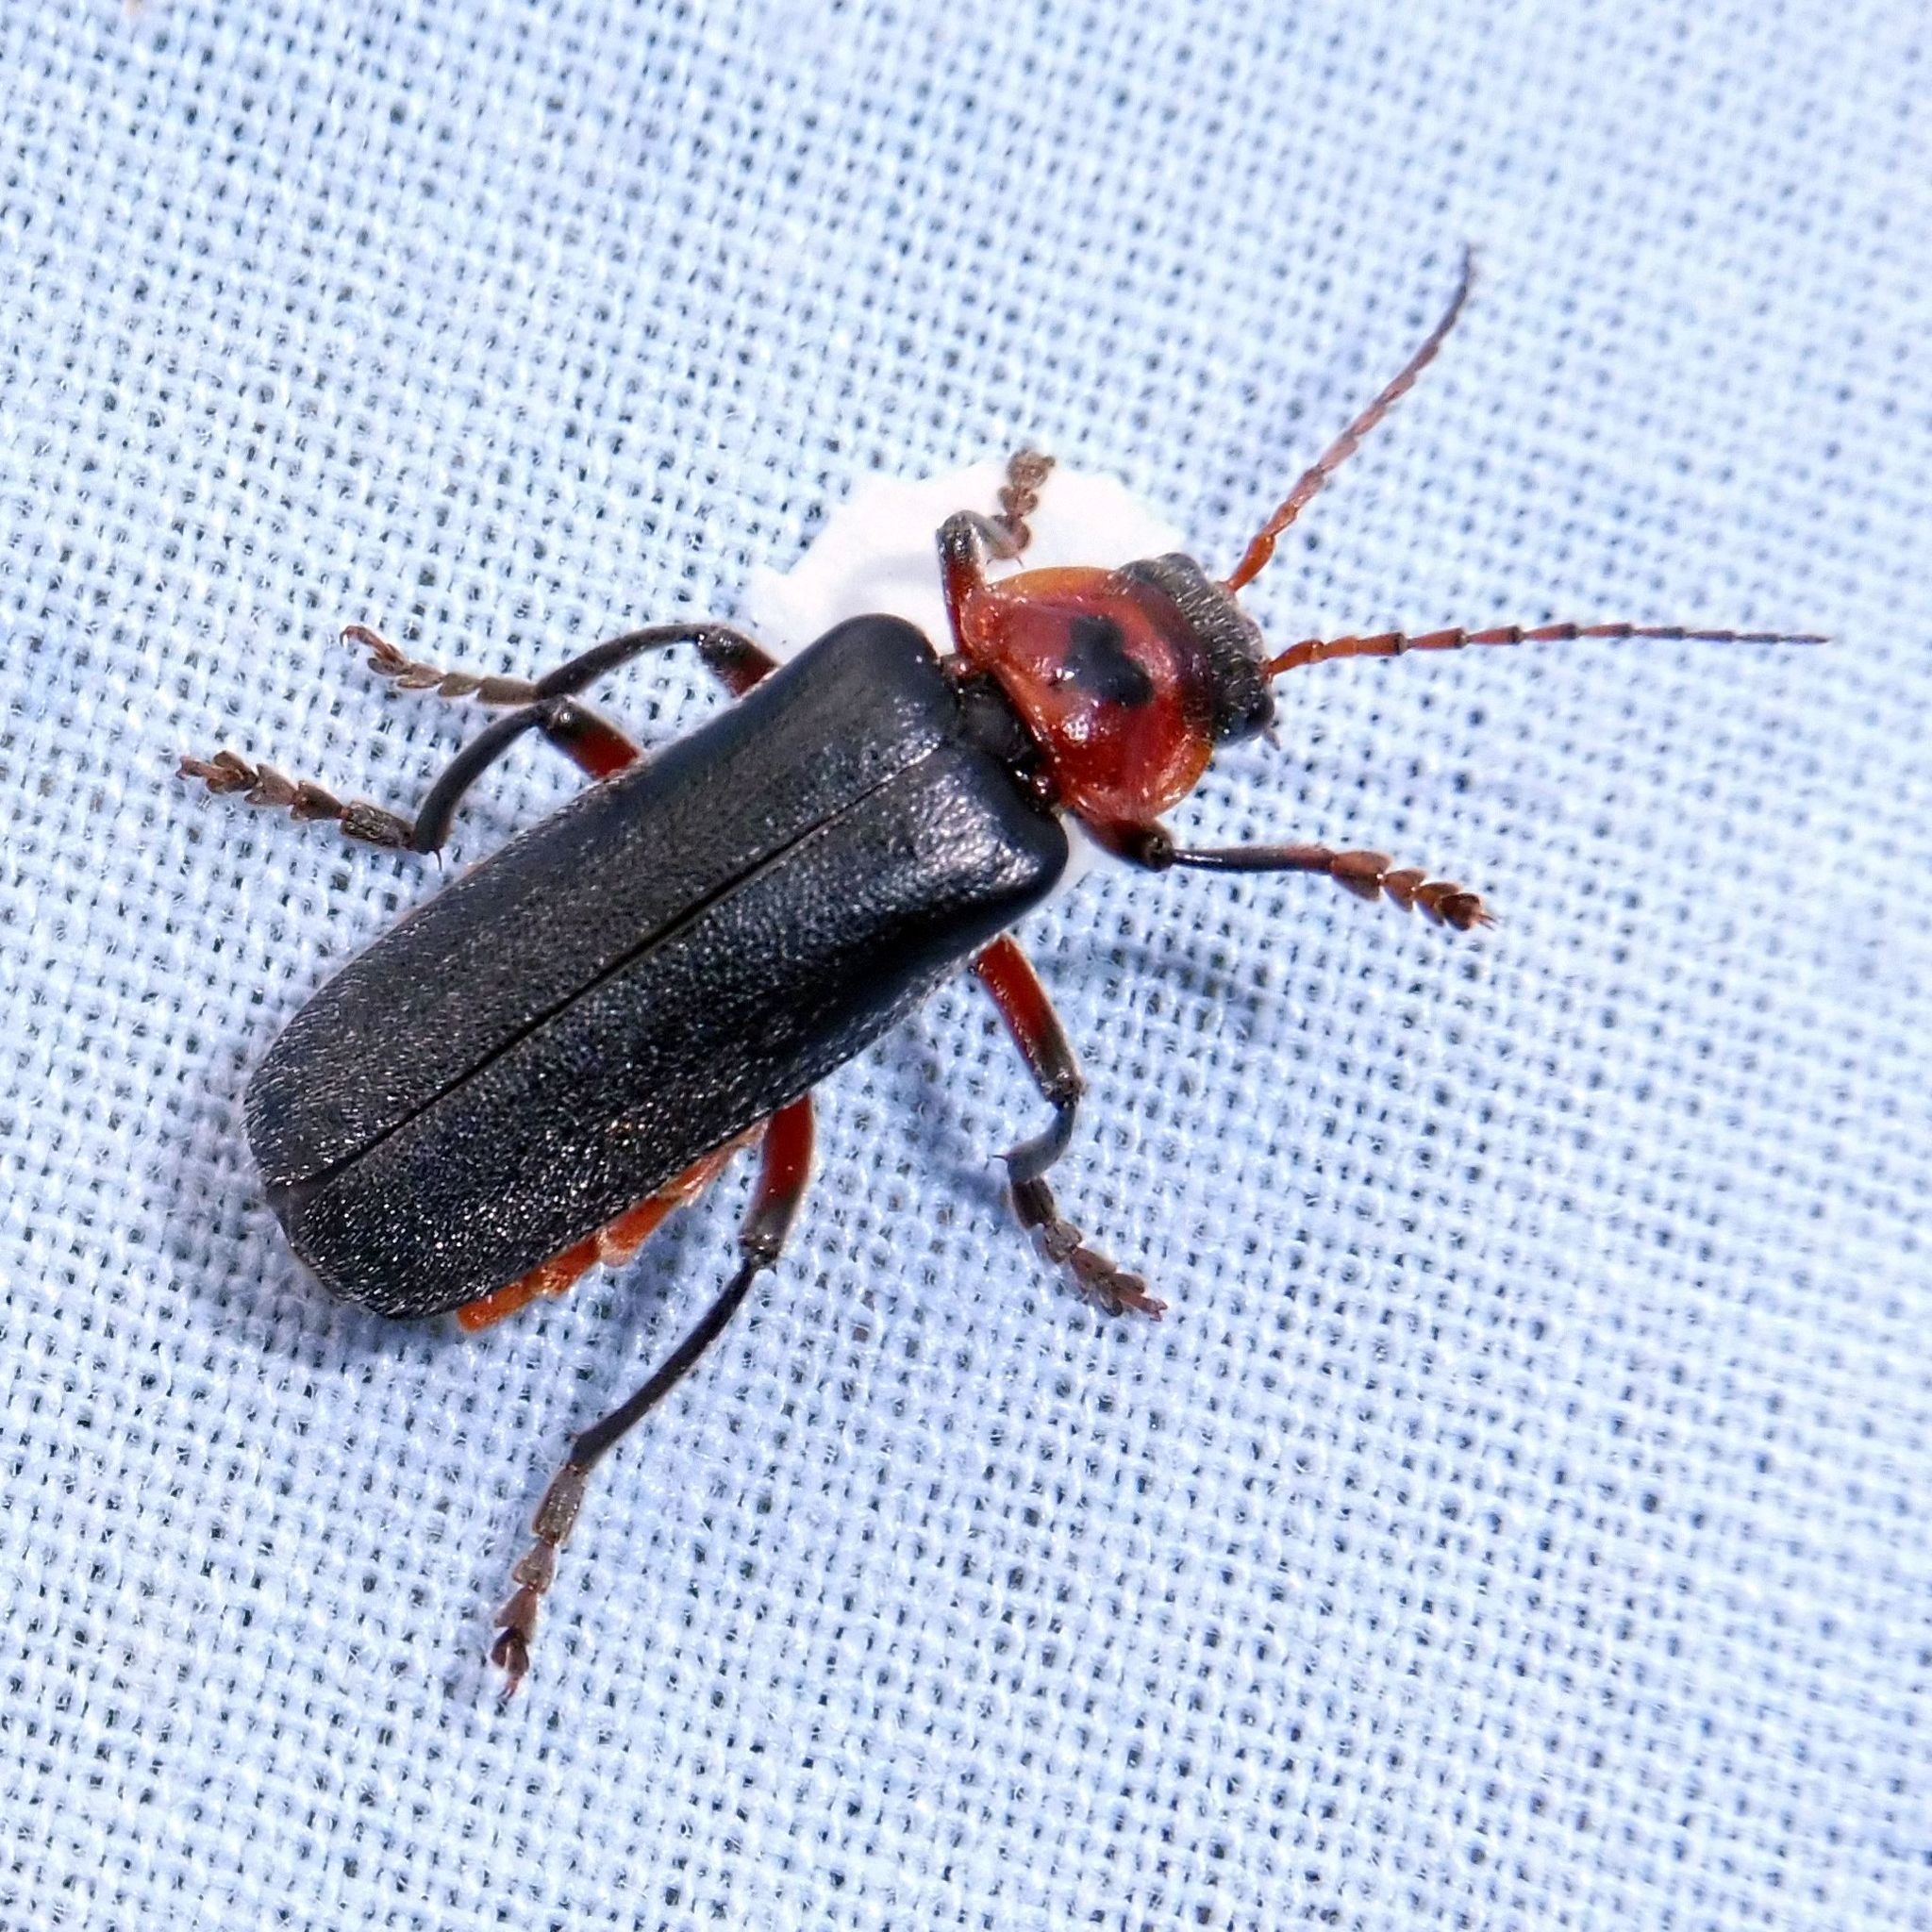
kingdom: Animalia
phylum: Arthropoda
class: Insecta
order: Coleoptera
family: Cantharidae
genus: Cantharis
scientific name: Cantharis rustica
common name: Soldier beetle
